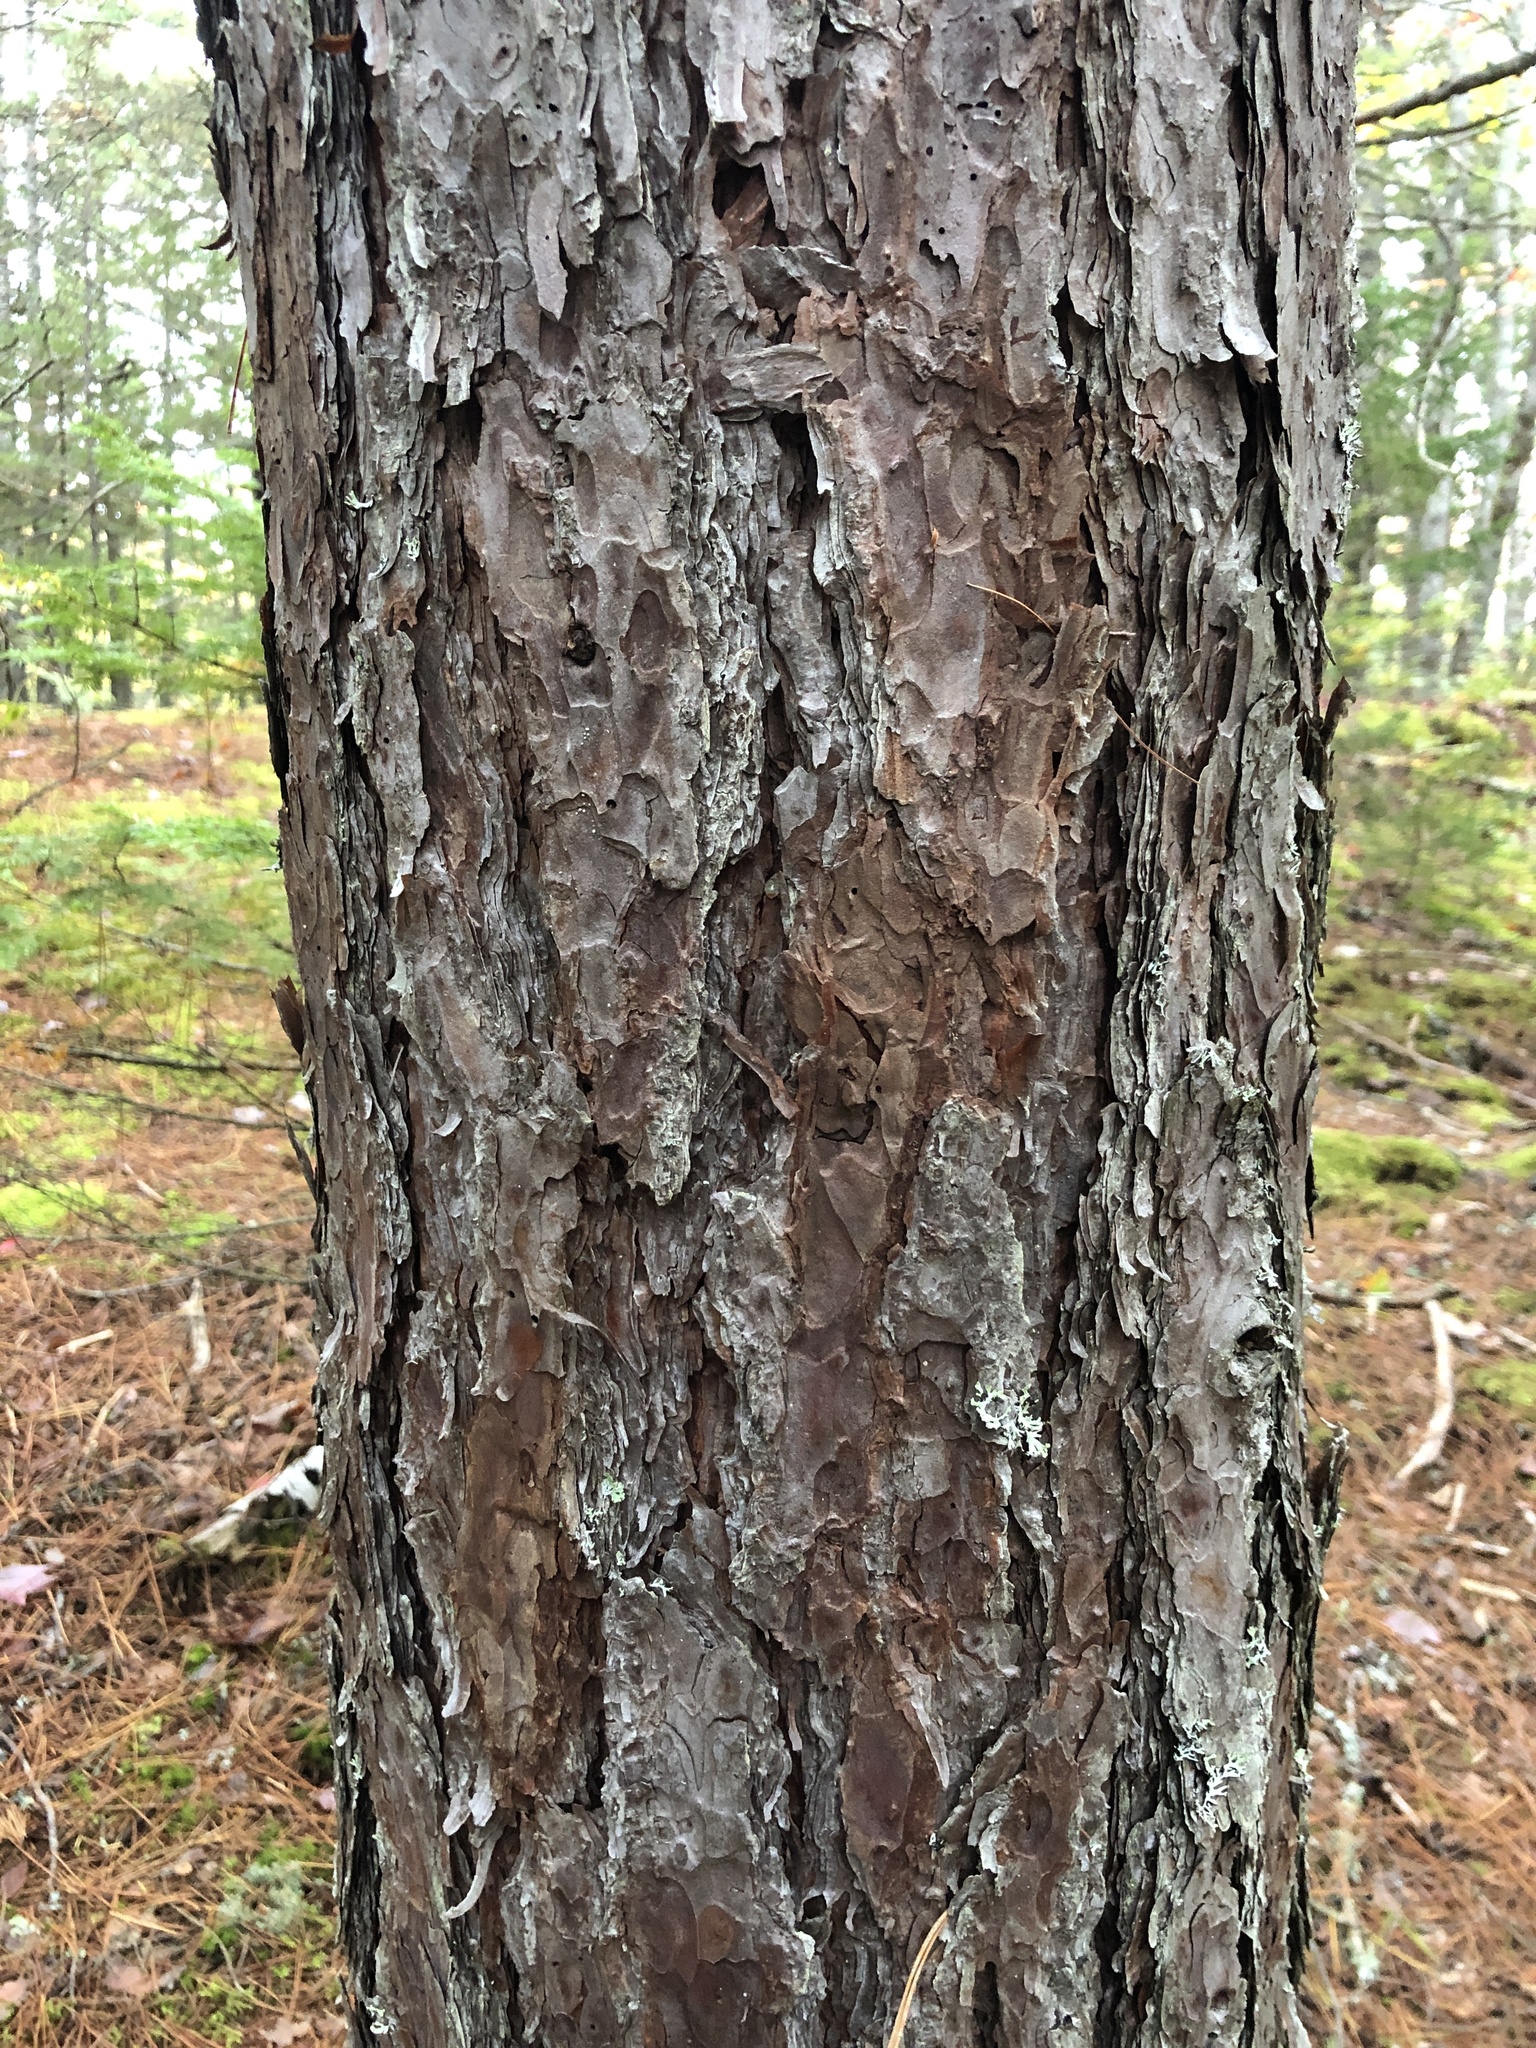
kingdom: Plantae
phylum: Tracheophyta
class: Pinopsida
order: Pinales
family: Pinaceae
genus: Pinus
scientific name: Pinus resinosa
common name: Norway pine
